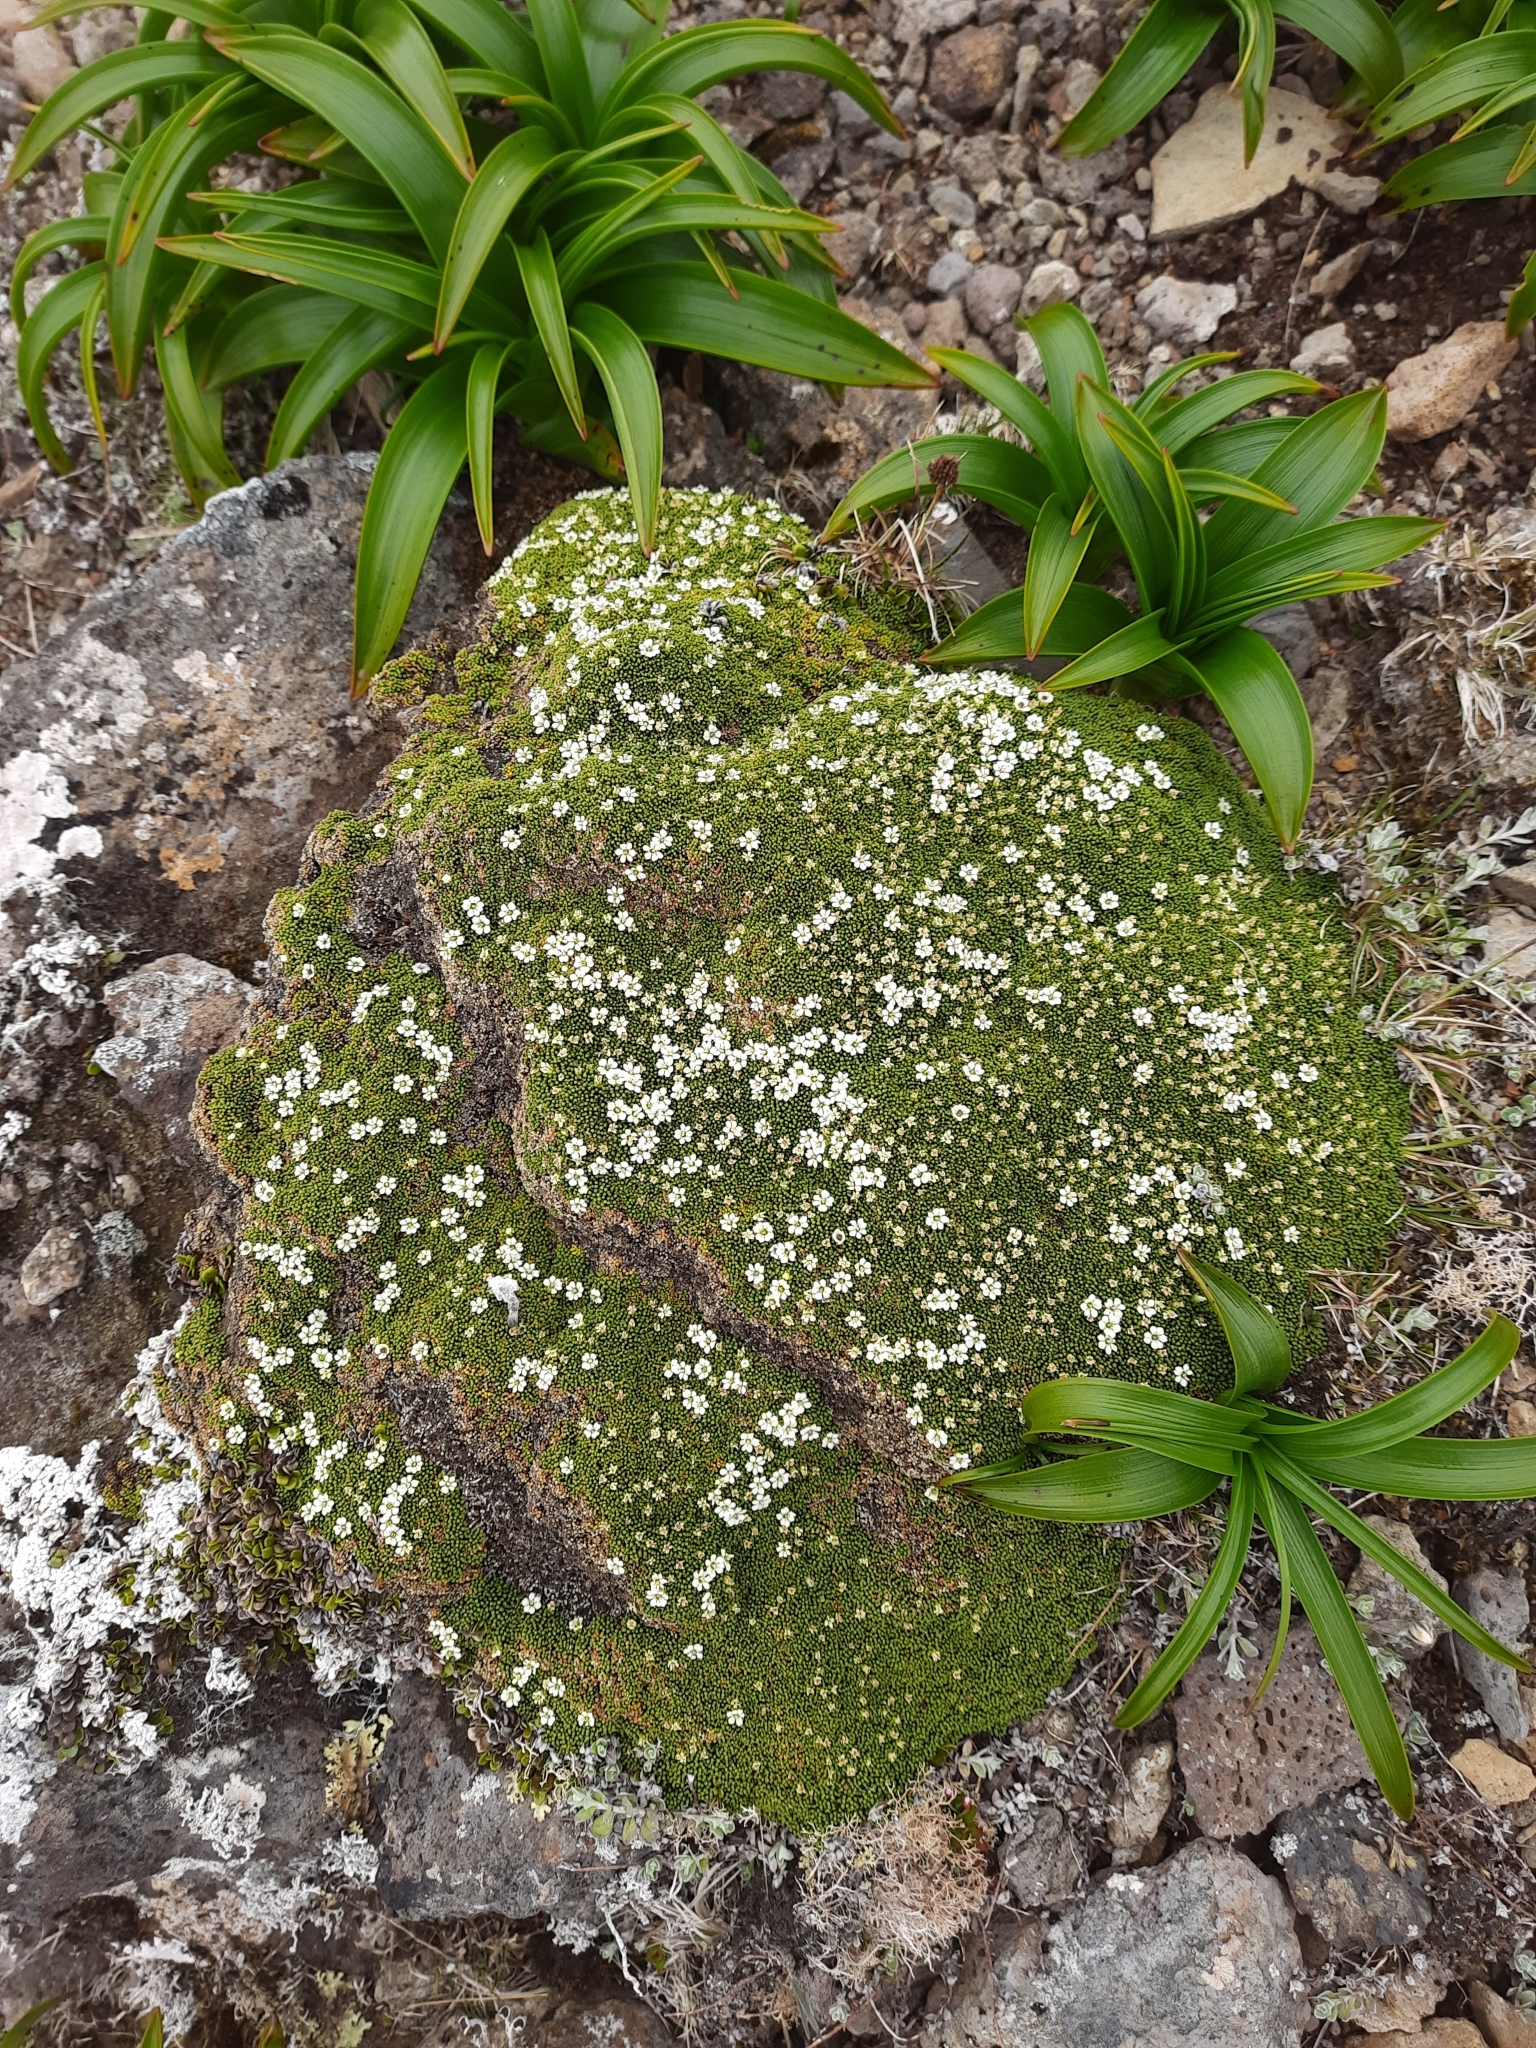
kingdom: Plantae
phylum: Tracheophyta
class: Magnoliopsida
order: Asterales
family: Stylidiaceae
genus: Phyllachne
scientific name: Phyllachne colensoi
